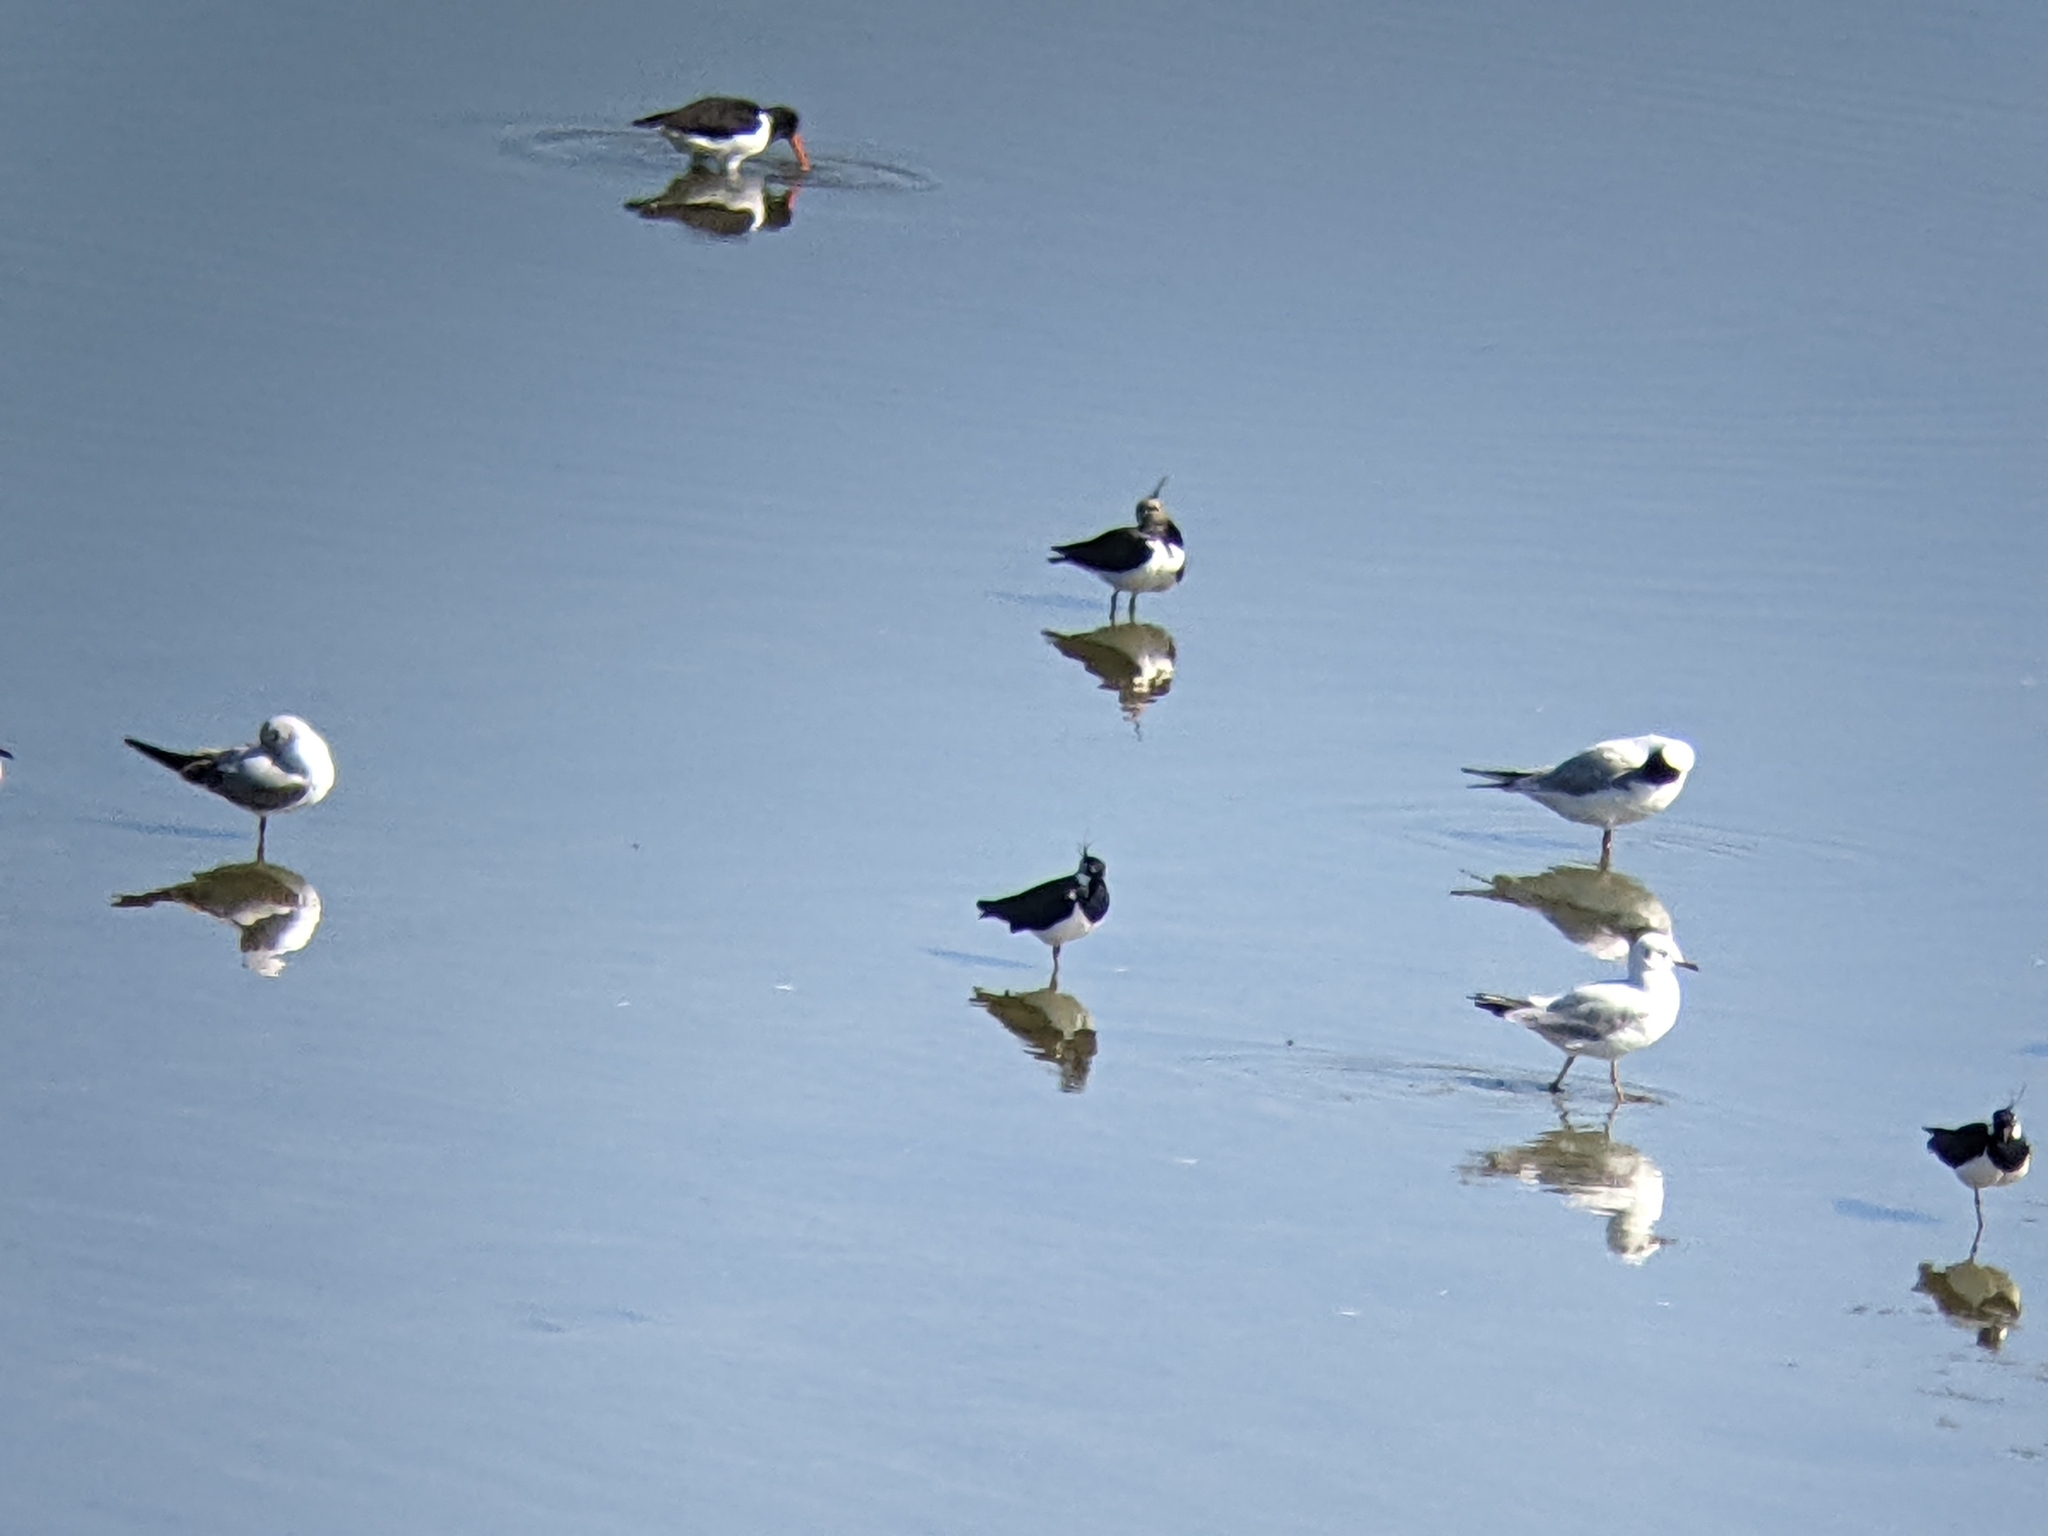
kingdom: Animalia
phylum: Chordata
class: Aves
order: Charadriiformes
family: Charadriidae
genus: Vanellus
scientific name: Vanellus vanellus
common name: Northern lapwing
